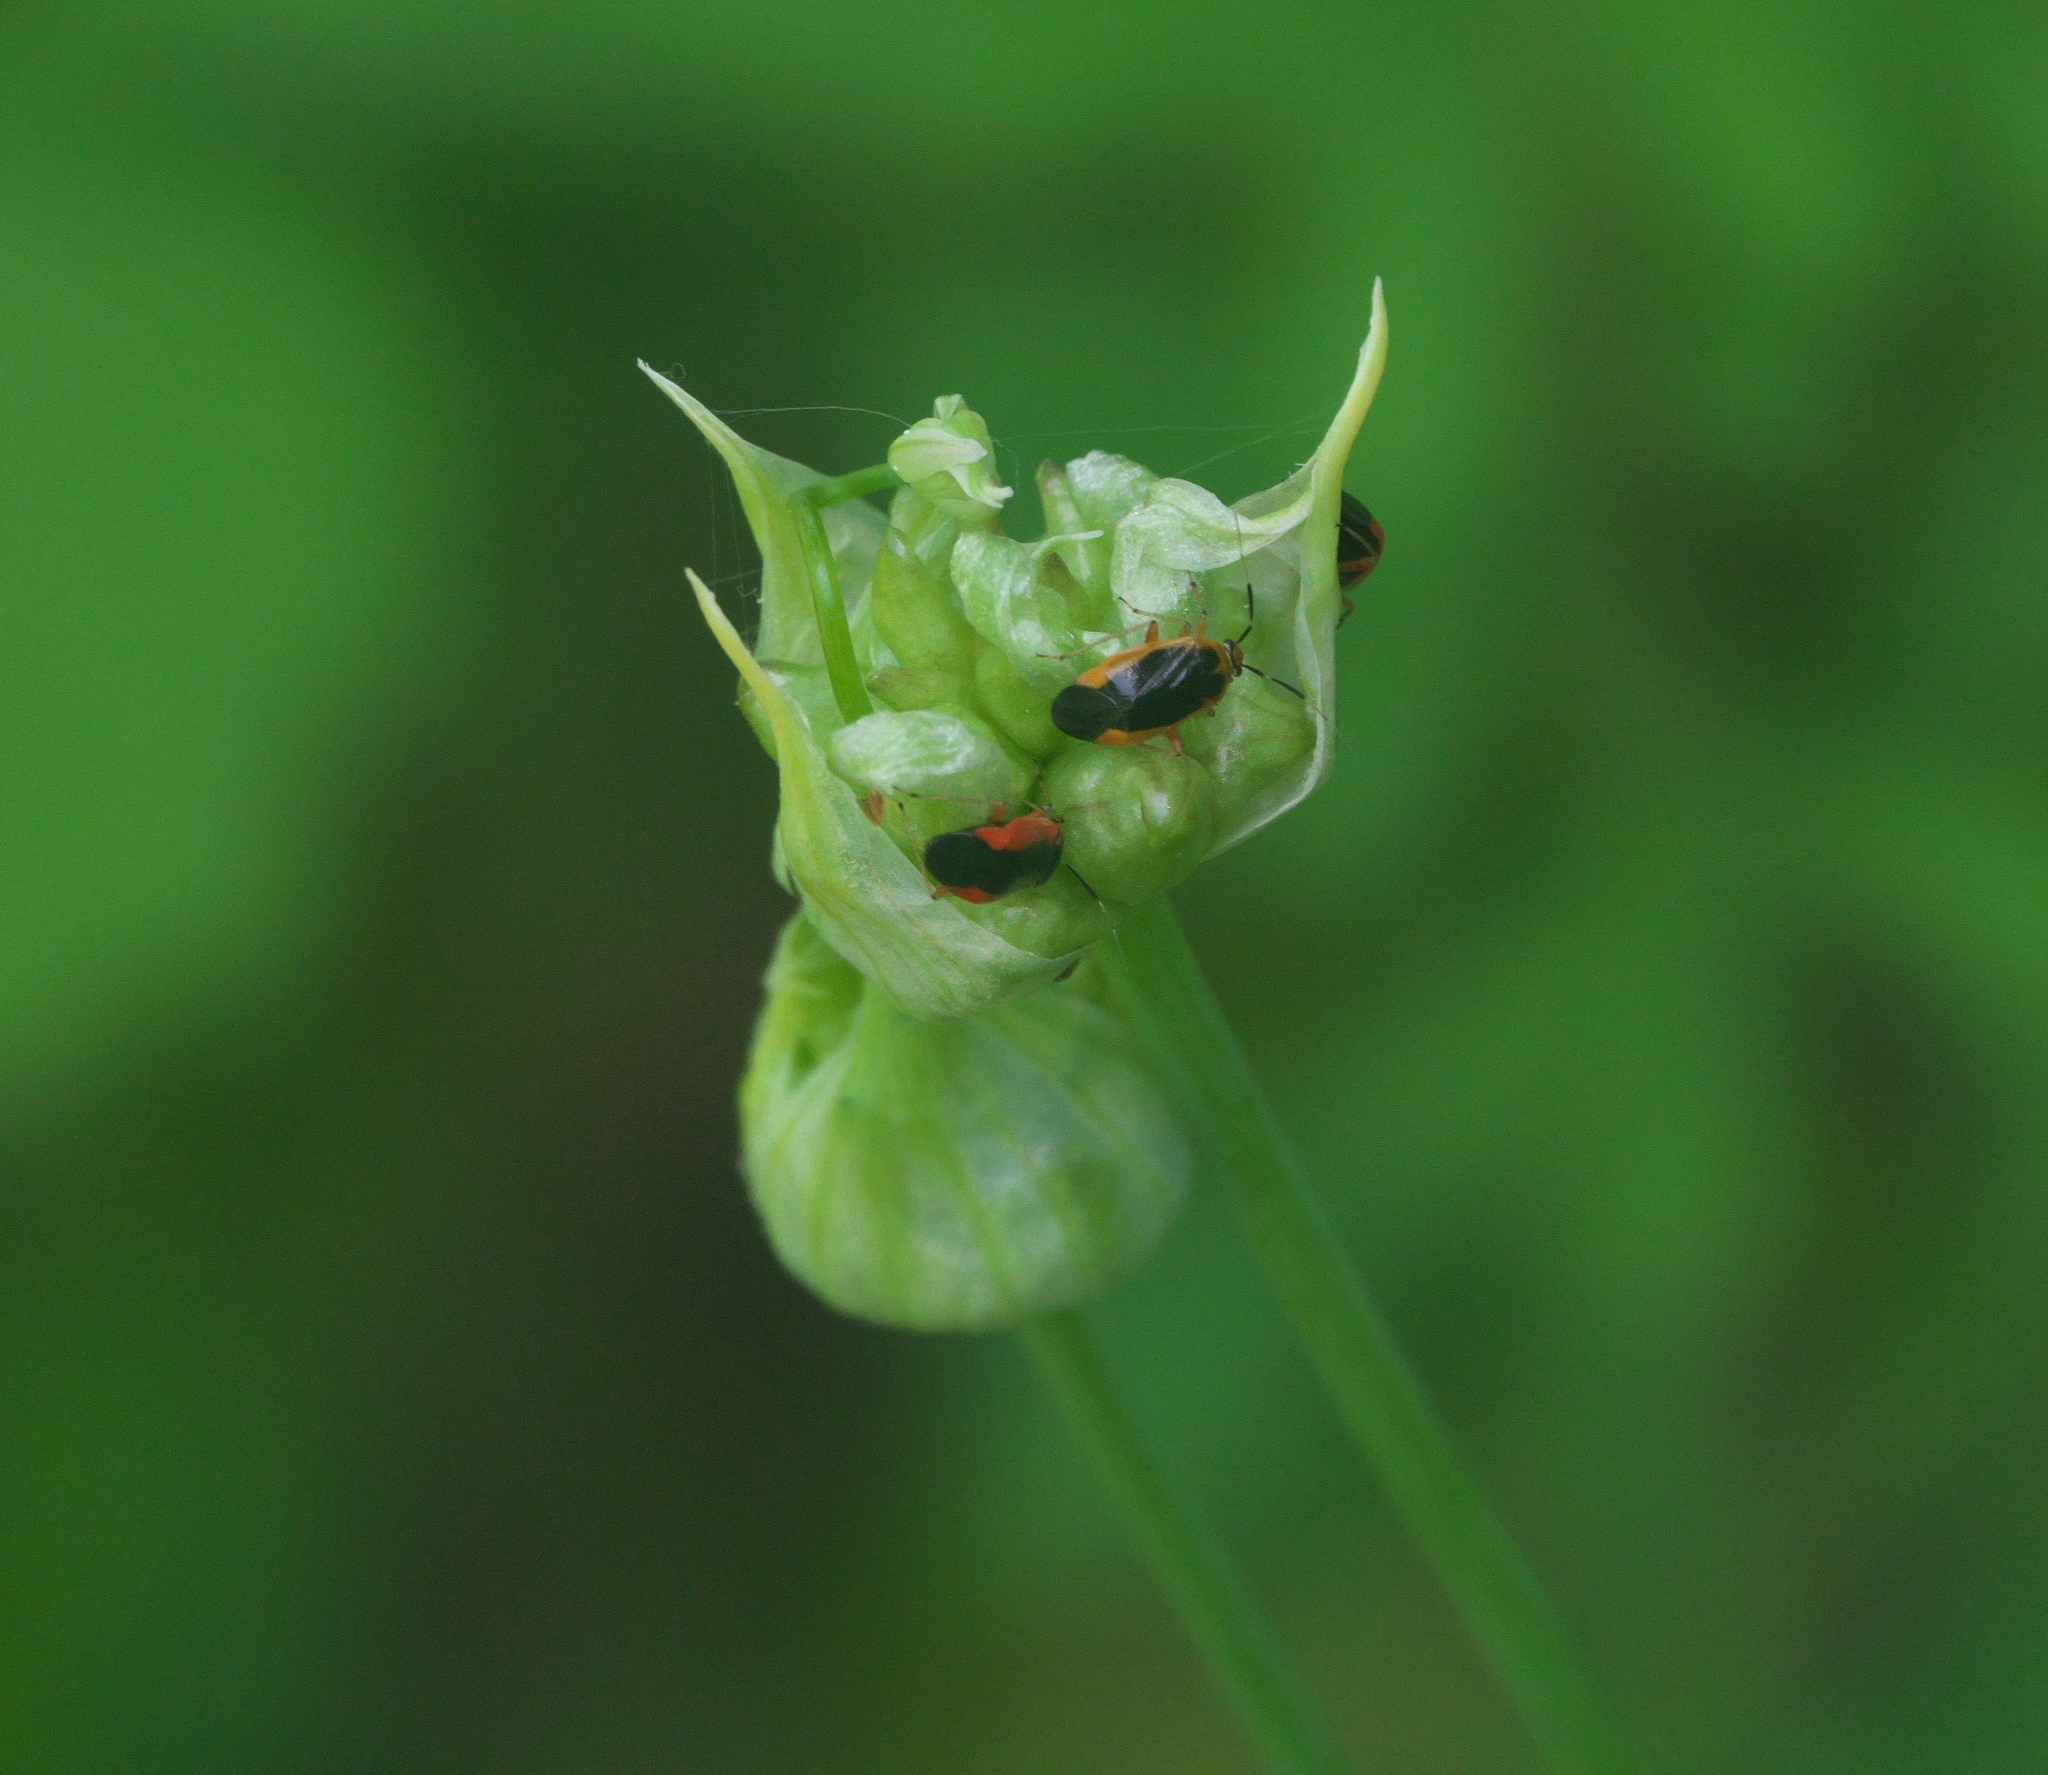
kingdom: Animalia
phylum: Arthropoda
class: Insecta
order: Hemiptera
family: Miridae
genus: Metriorrhynchomiris
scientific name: Metriorrhynchomiris dislocatus
